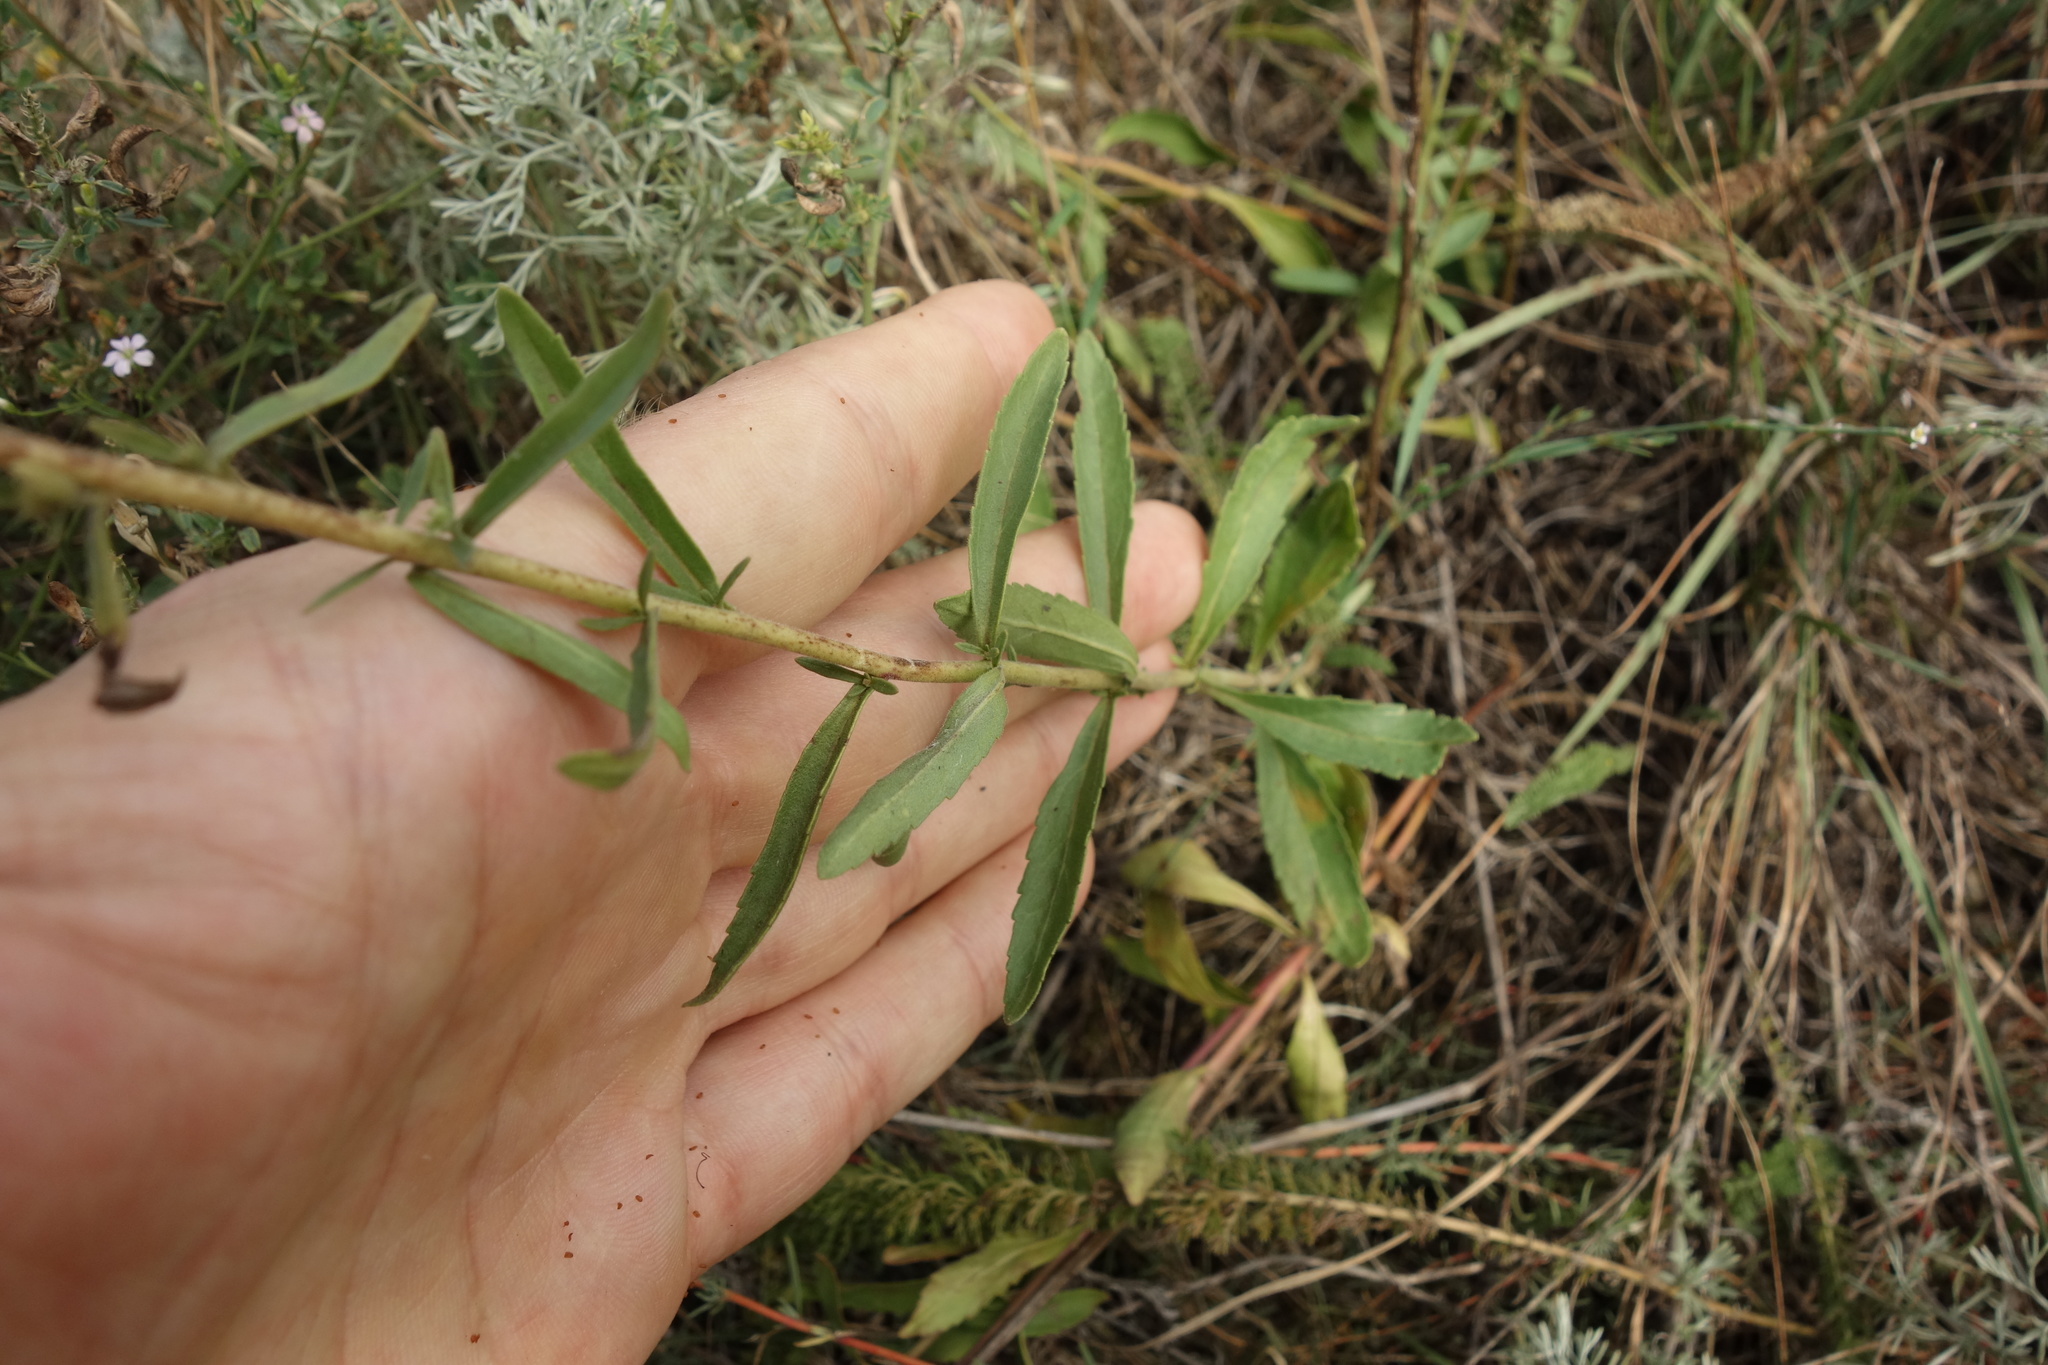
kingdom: Plantae
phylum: Tracheophyta
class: Magnoliopsida
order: Lamiales
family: Plantaginaceae
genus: Veronica
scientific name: Veronica spicata
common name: Spiked speedwell
